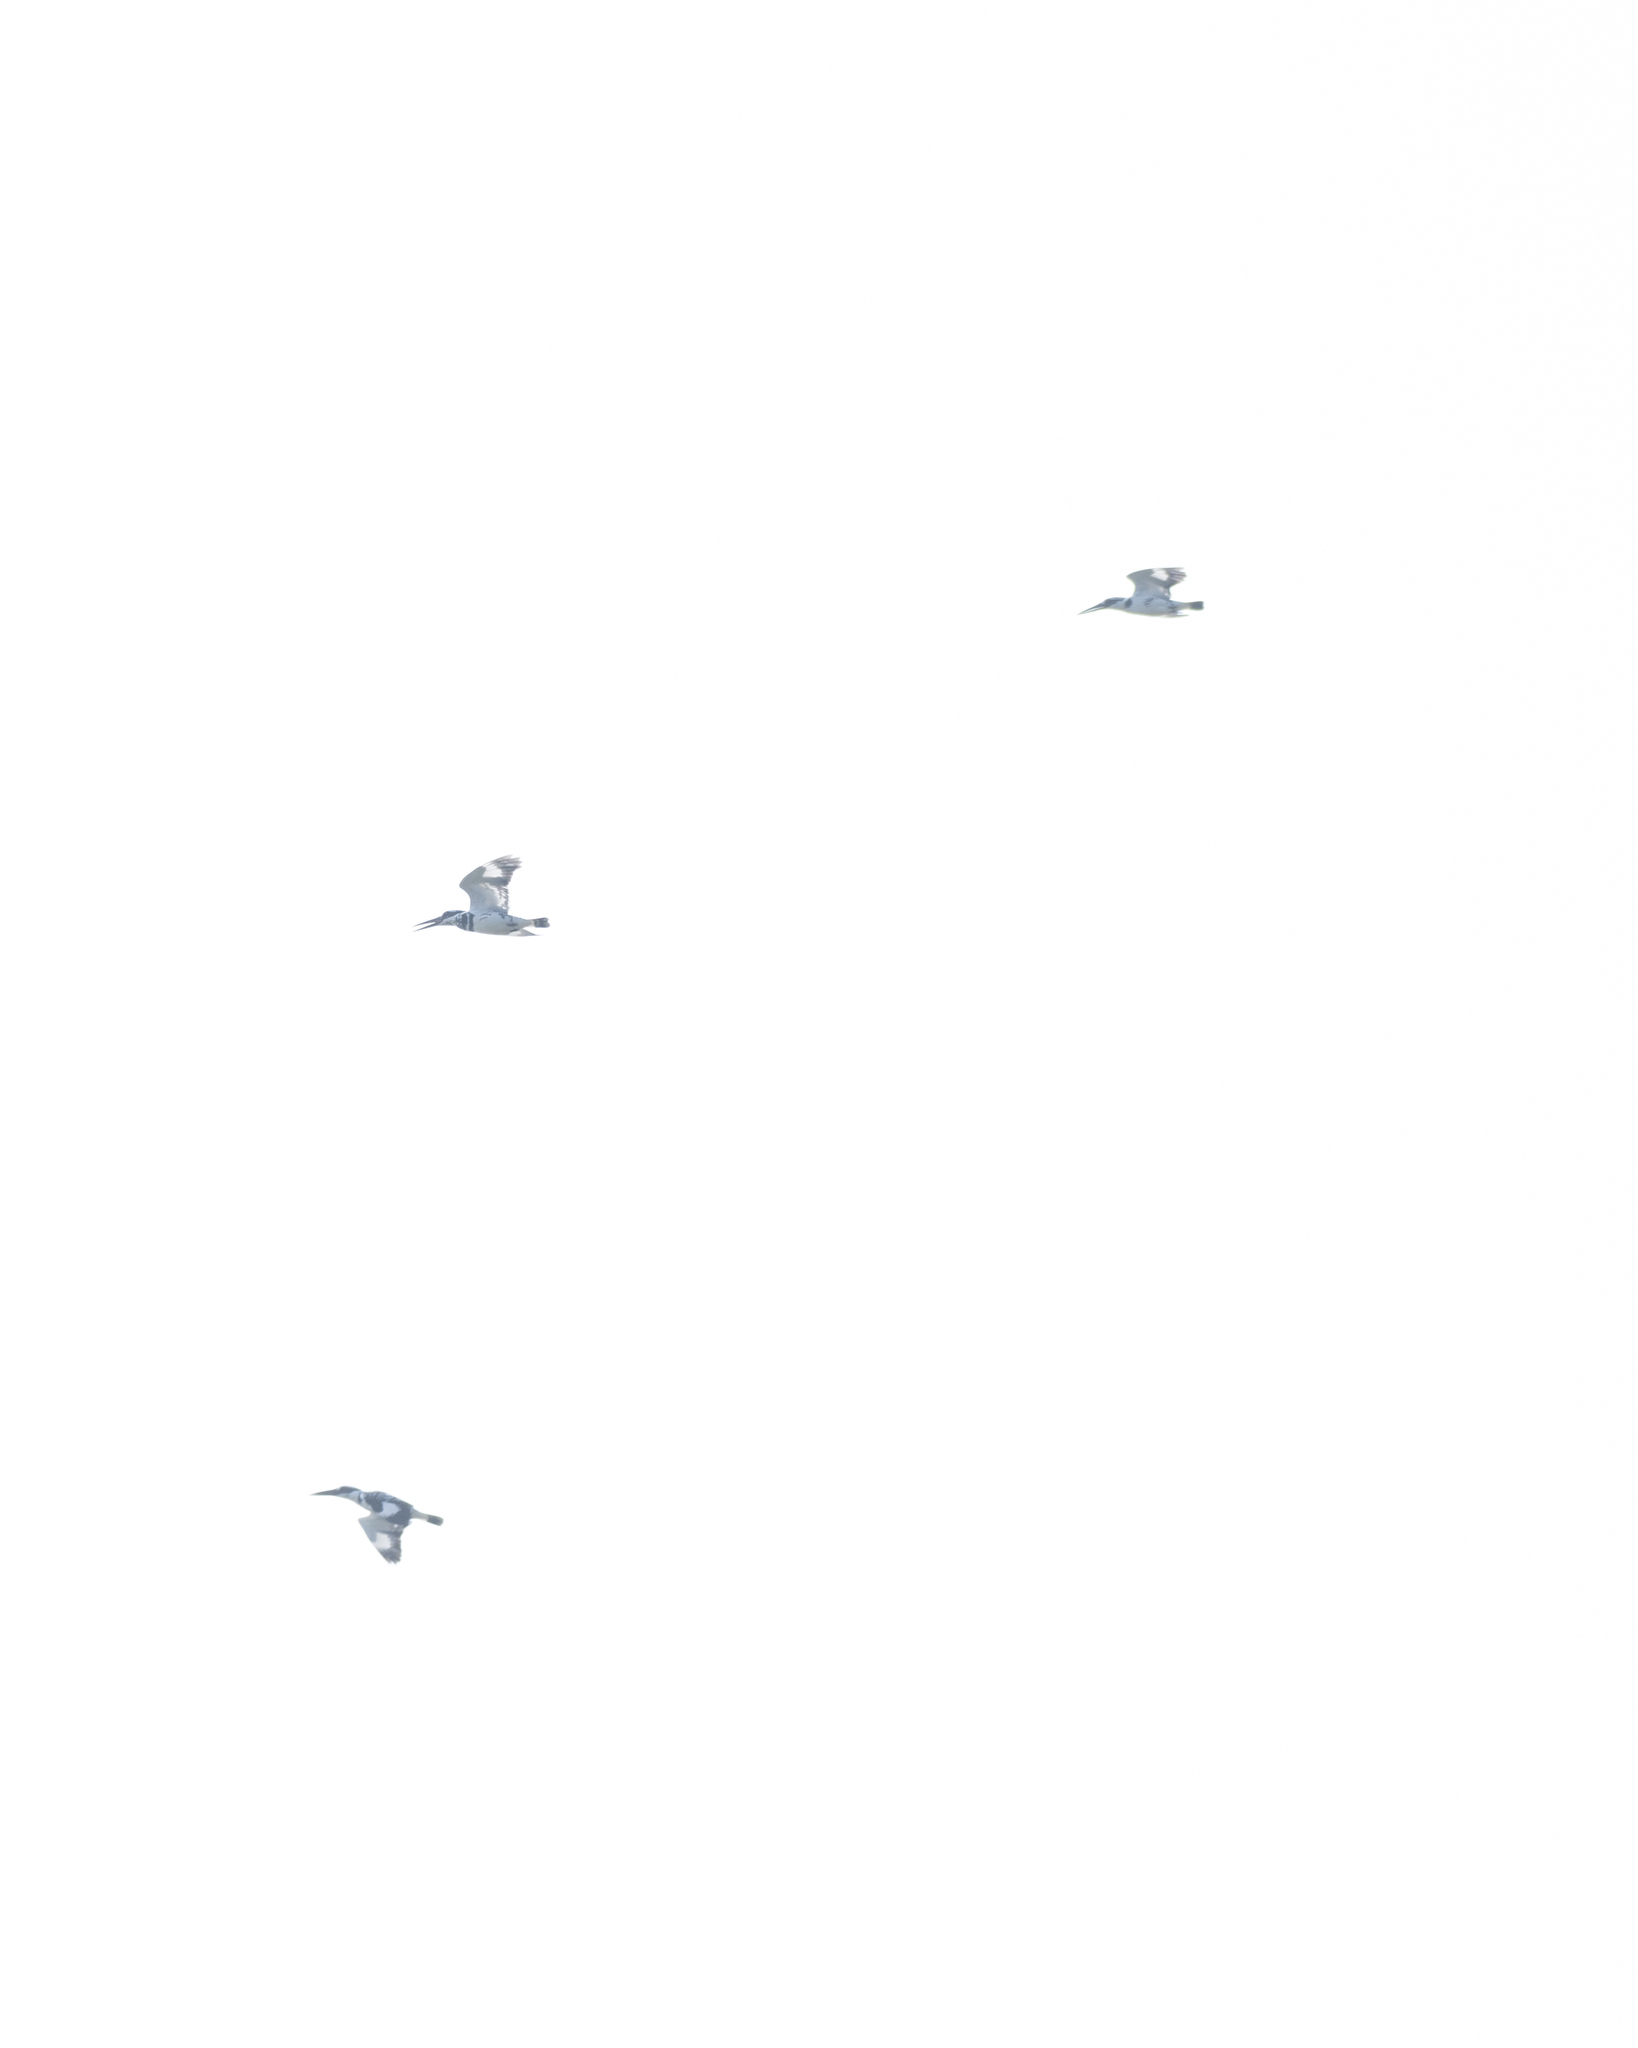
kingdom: Animalia
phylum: Chordata
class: Aves
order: Coraciiformes
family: Alcedinidae
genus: Ceryle
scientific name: Ceryle rudis
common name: Pied kingfisher
